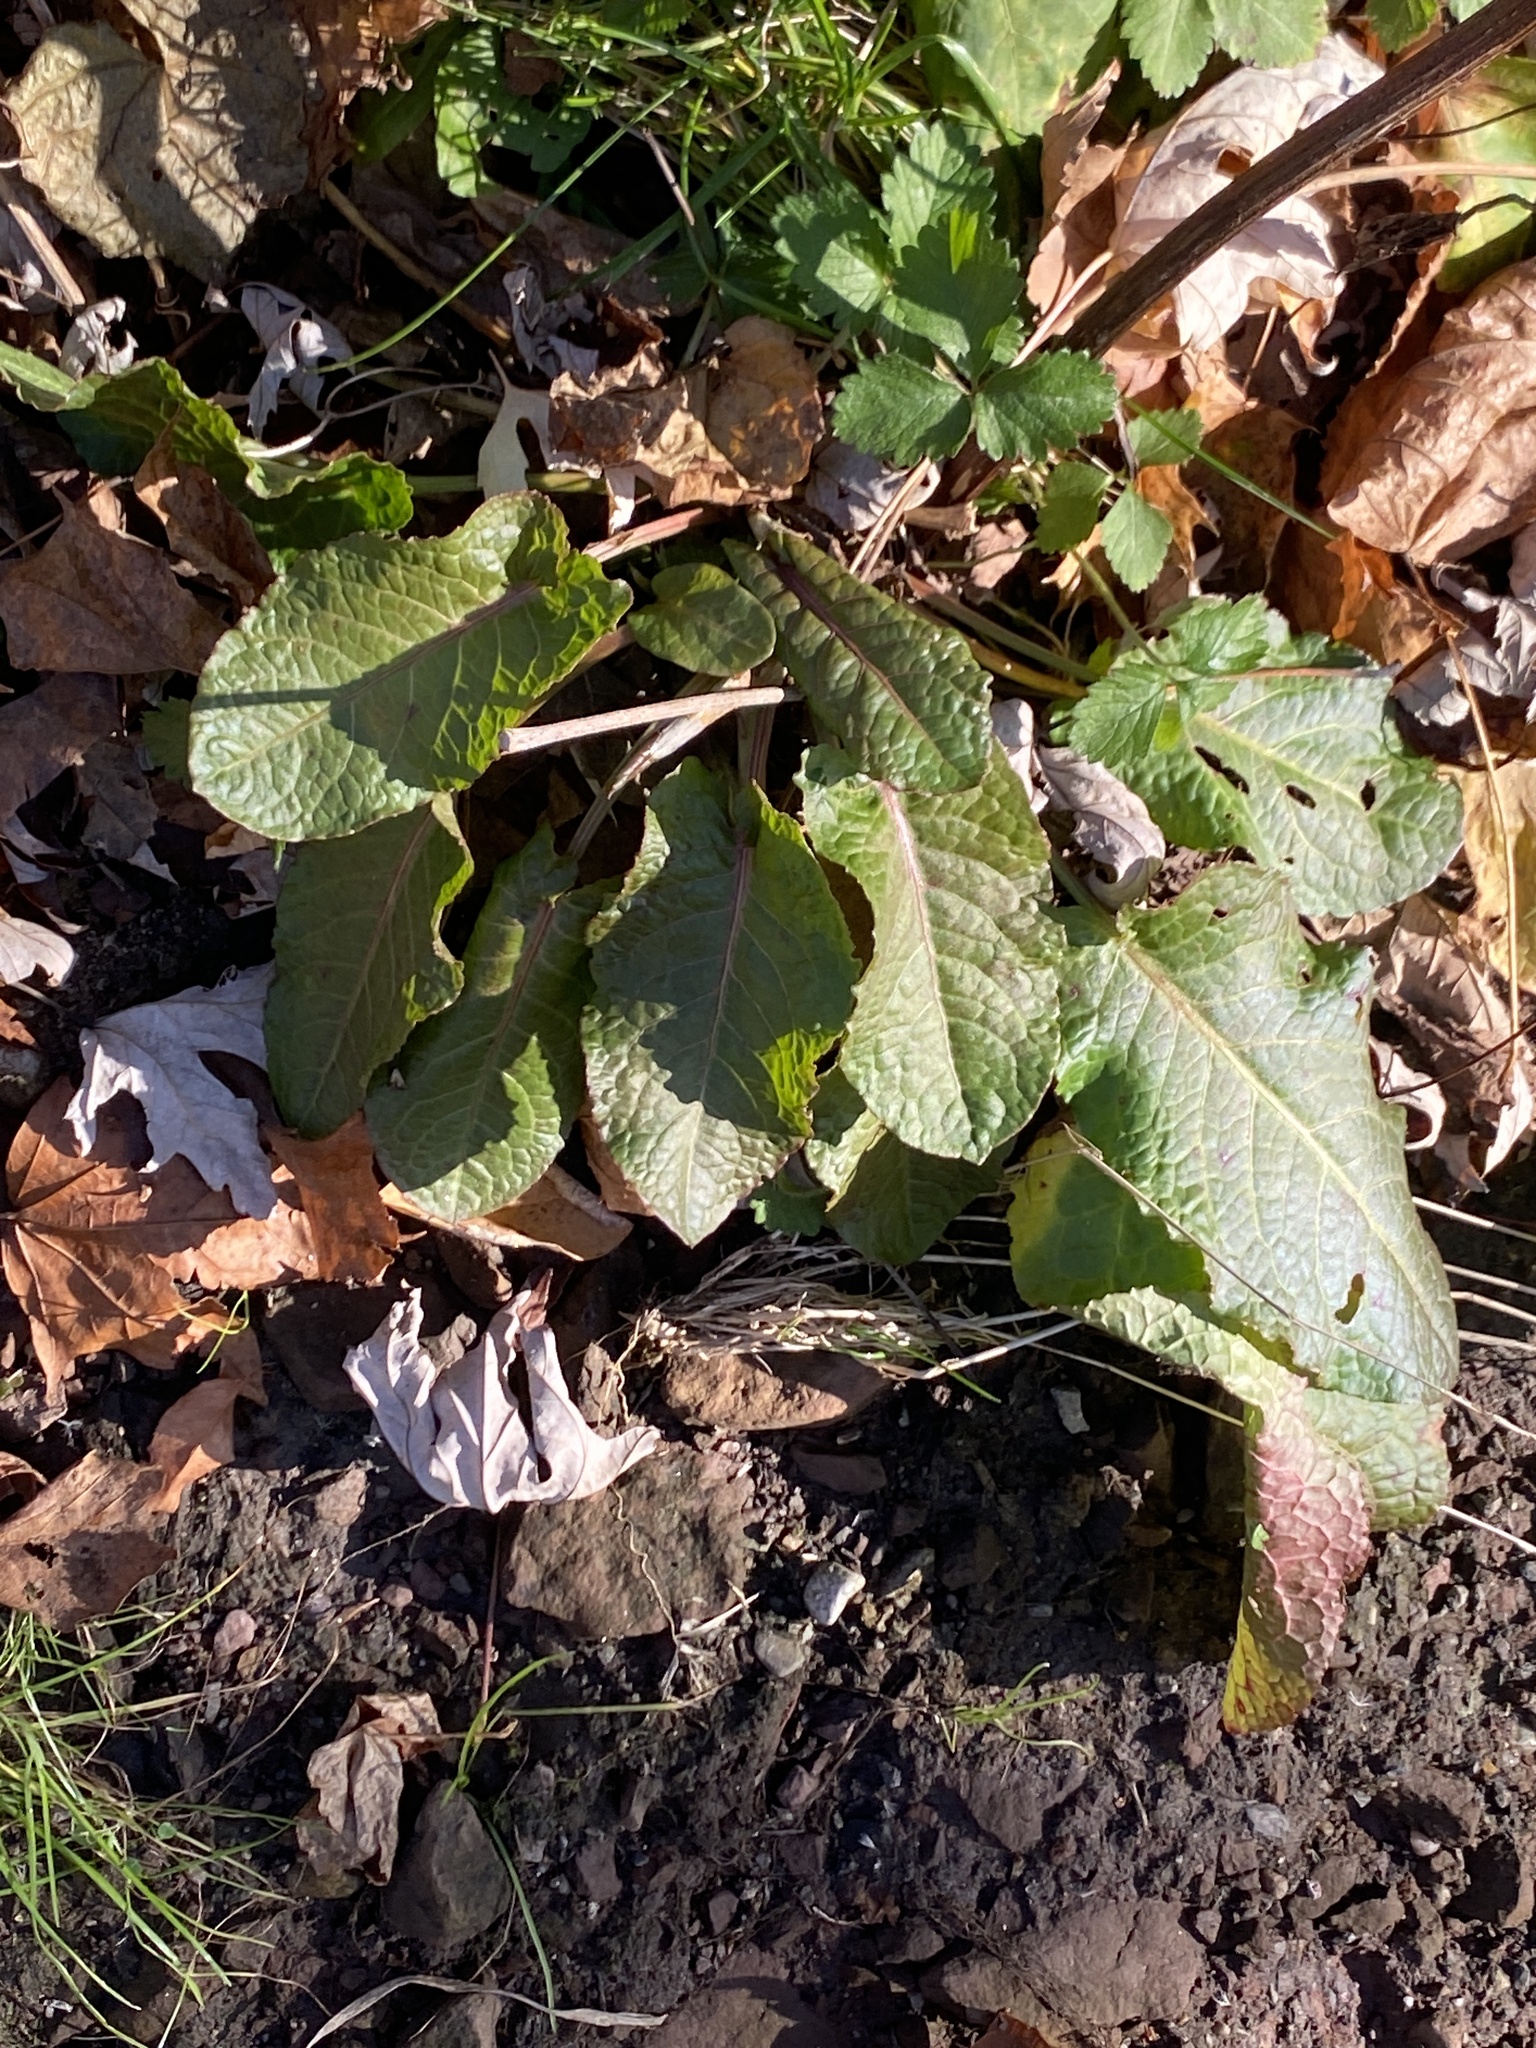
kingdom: Plantae
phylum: Tracheophyta
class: Magnoliopsida
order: Caryophyllales
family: Polygonaceae
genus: Rumex
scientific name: Rumex obtusifolius
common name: Bitter dock
